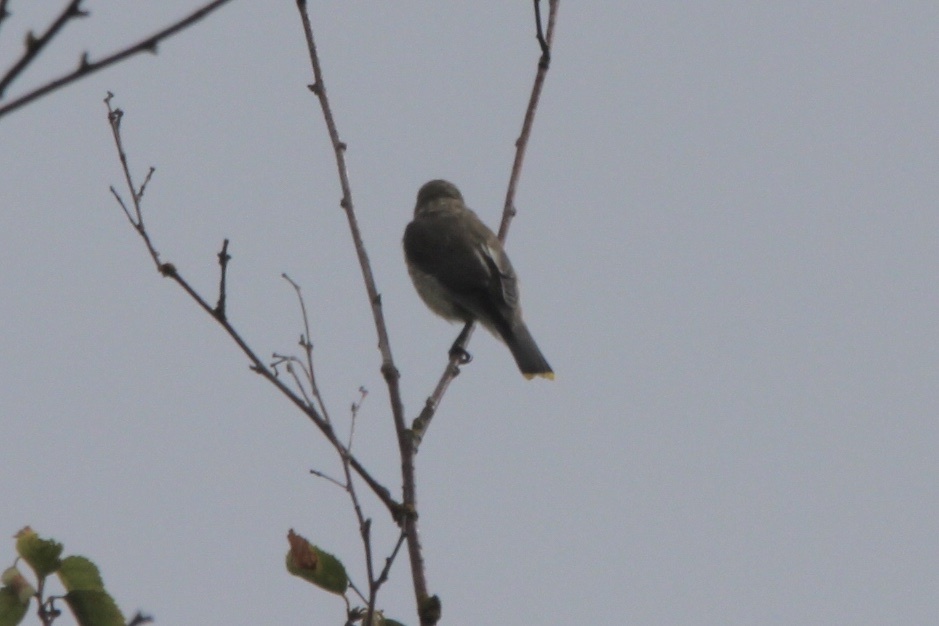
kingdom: Animalia
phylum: Chordata
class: Aves
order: Passeriformes
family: Bombycillidae
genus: Bombycilla
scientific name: Bombycilla cedrorum
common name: Cedar waxwing
